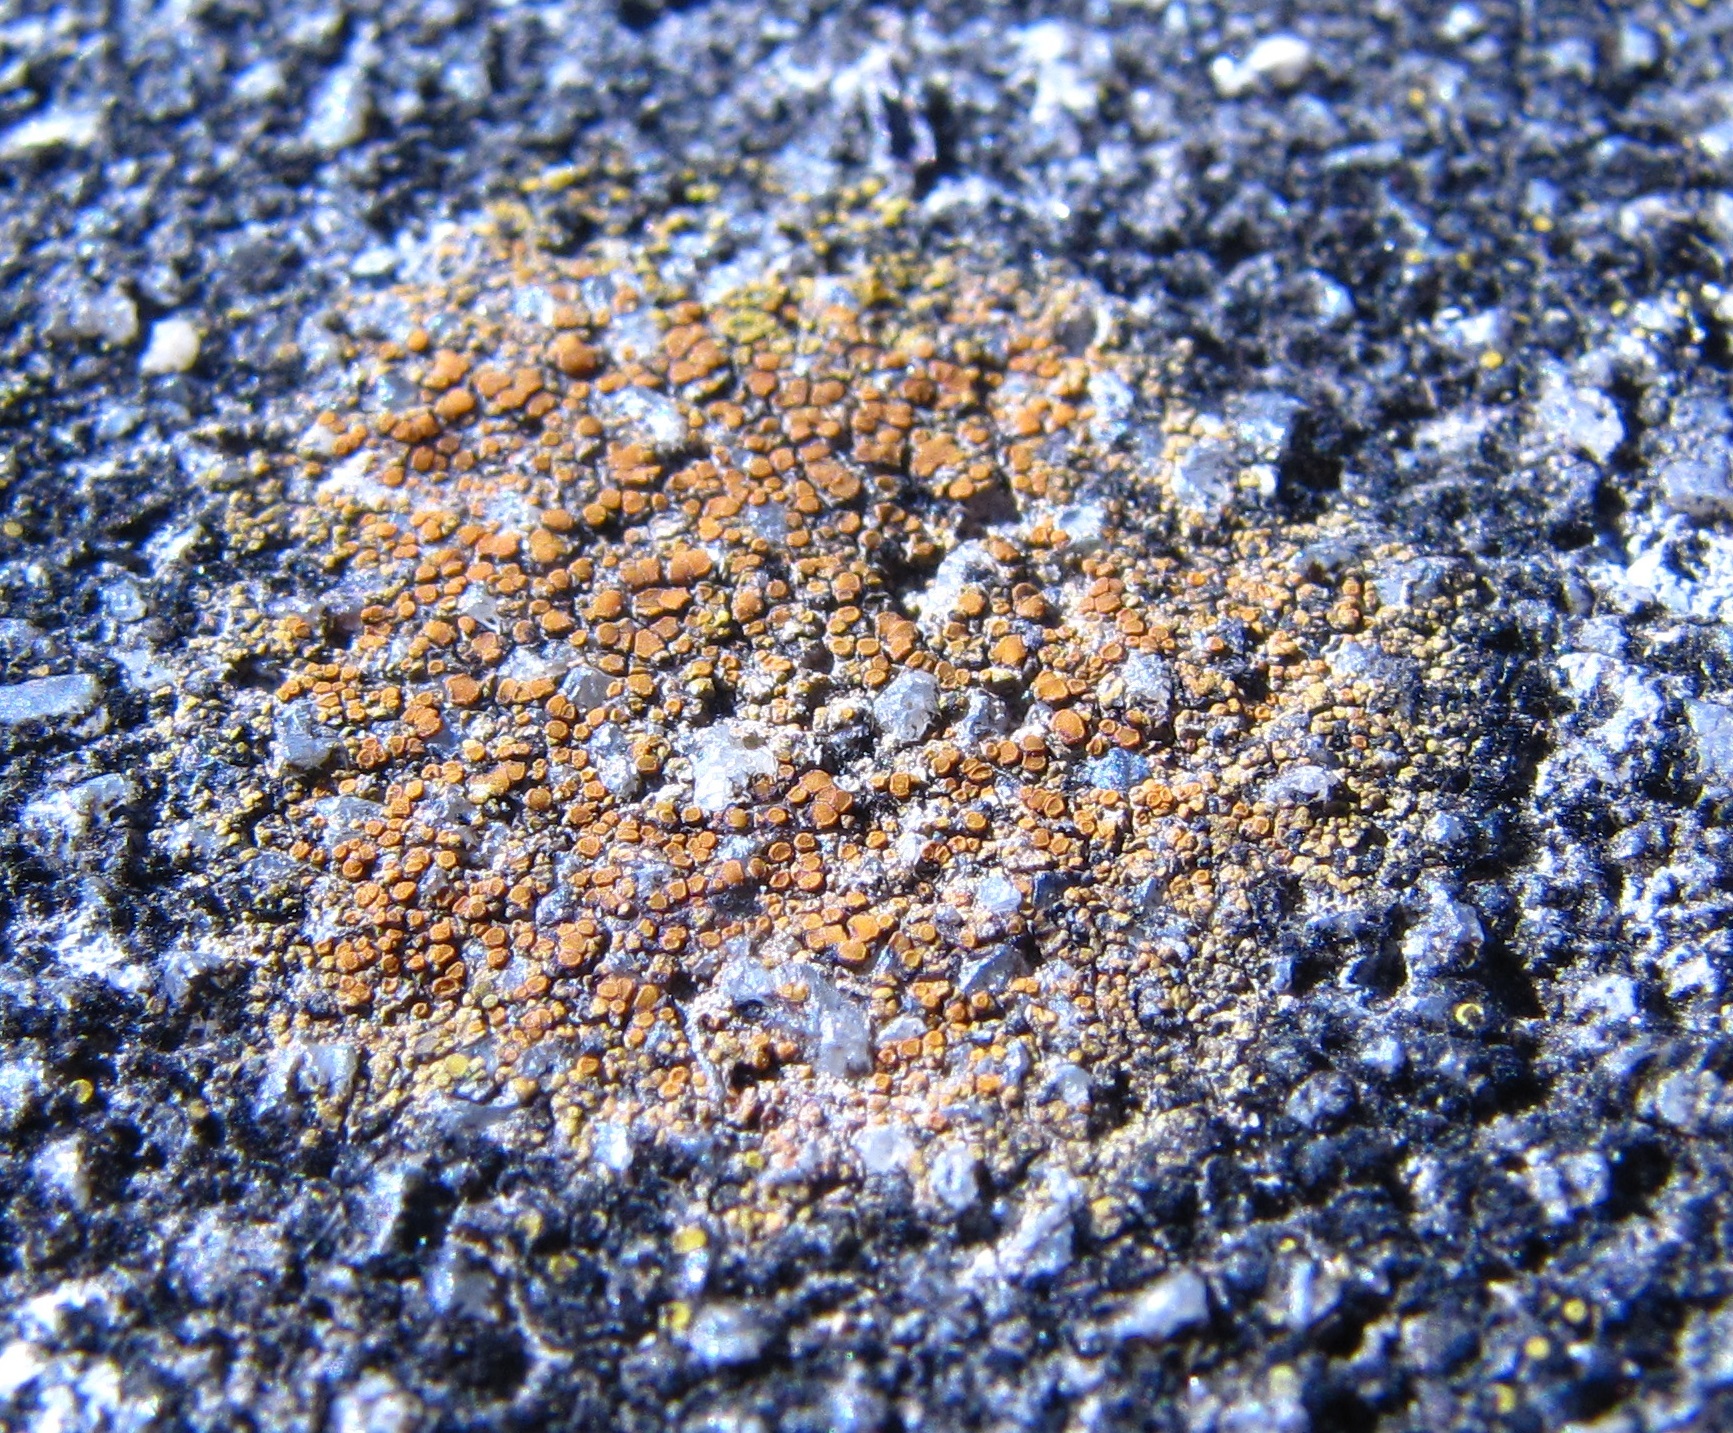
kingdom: Fungi
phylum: Ascomycota
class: Lecanoromycetes
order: Teloschistales
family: Teloschistaceae
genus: Xanthocarpia
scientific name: Xanthocarpia feracissima
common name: Sidewalk firedot
